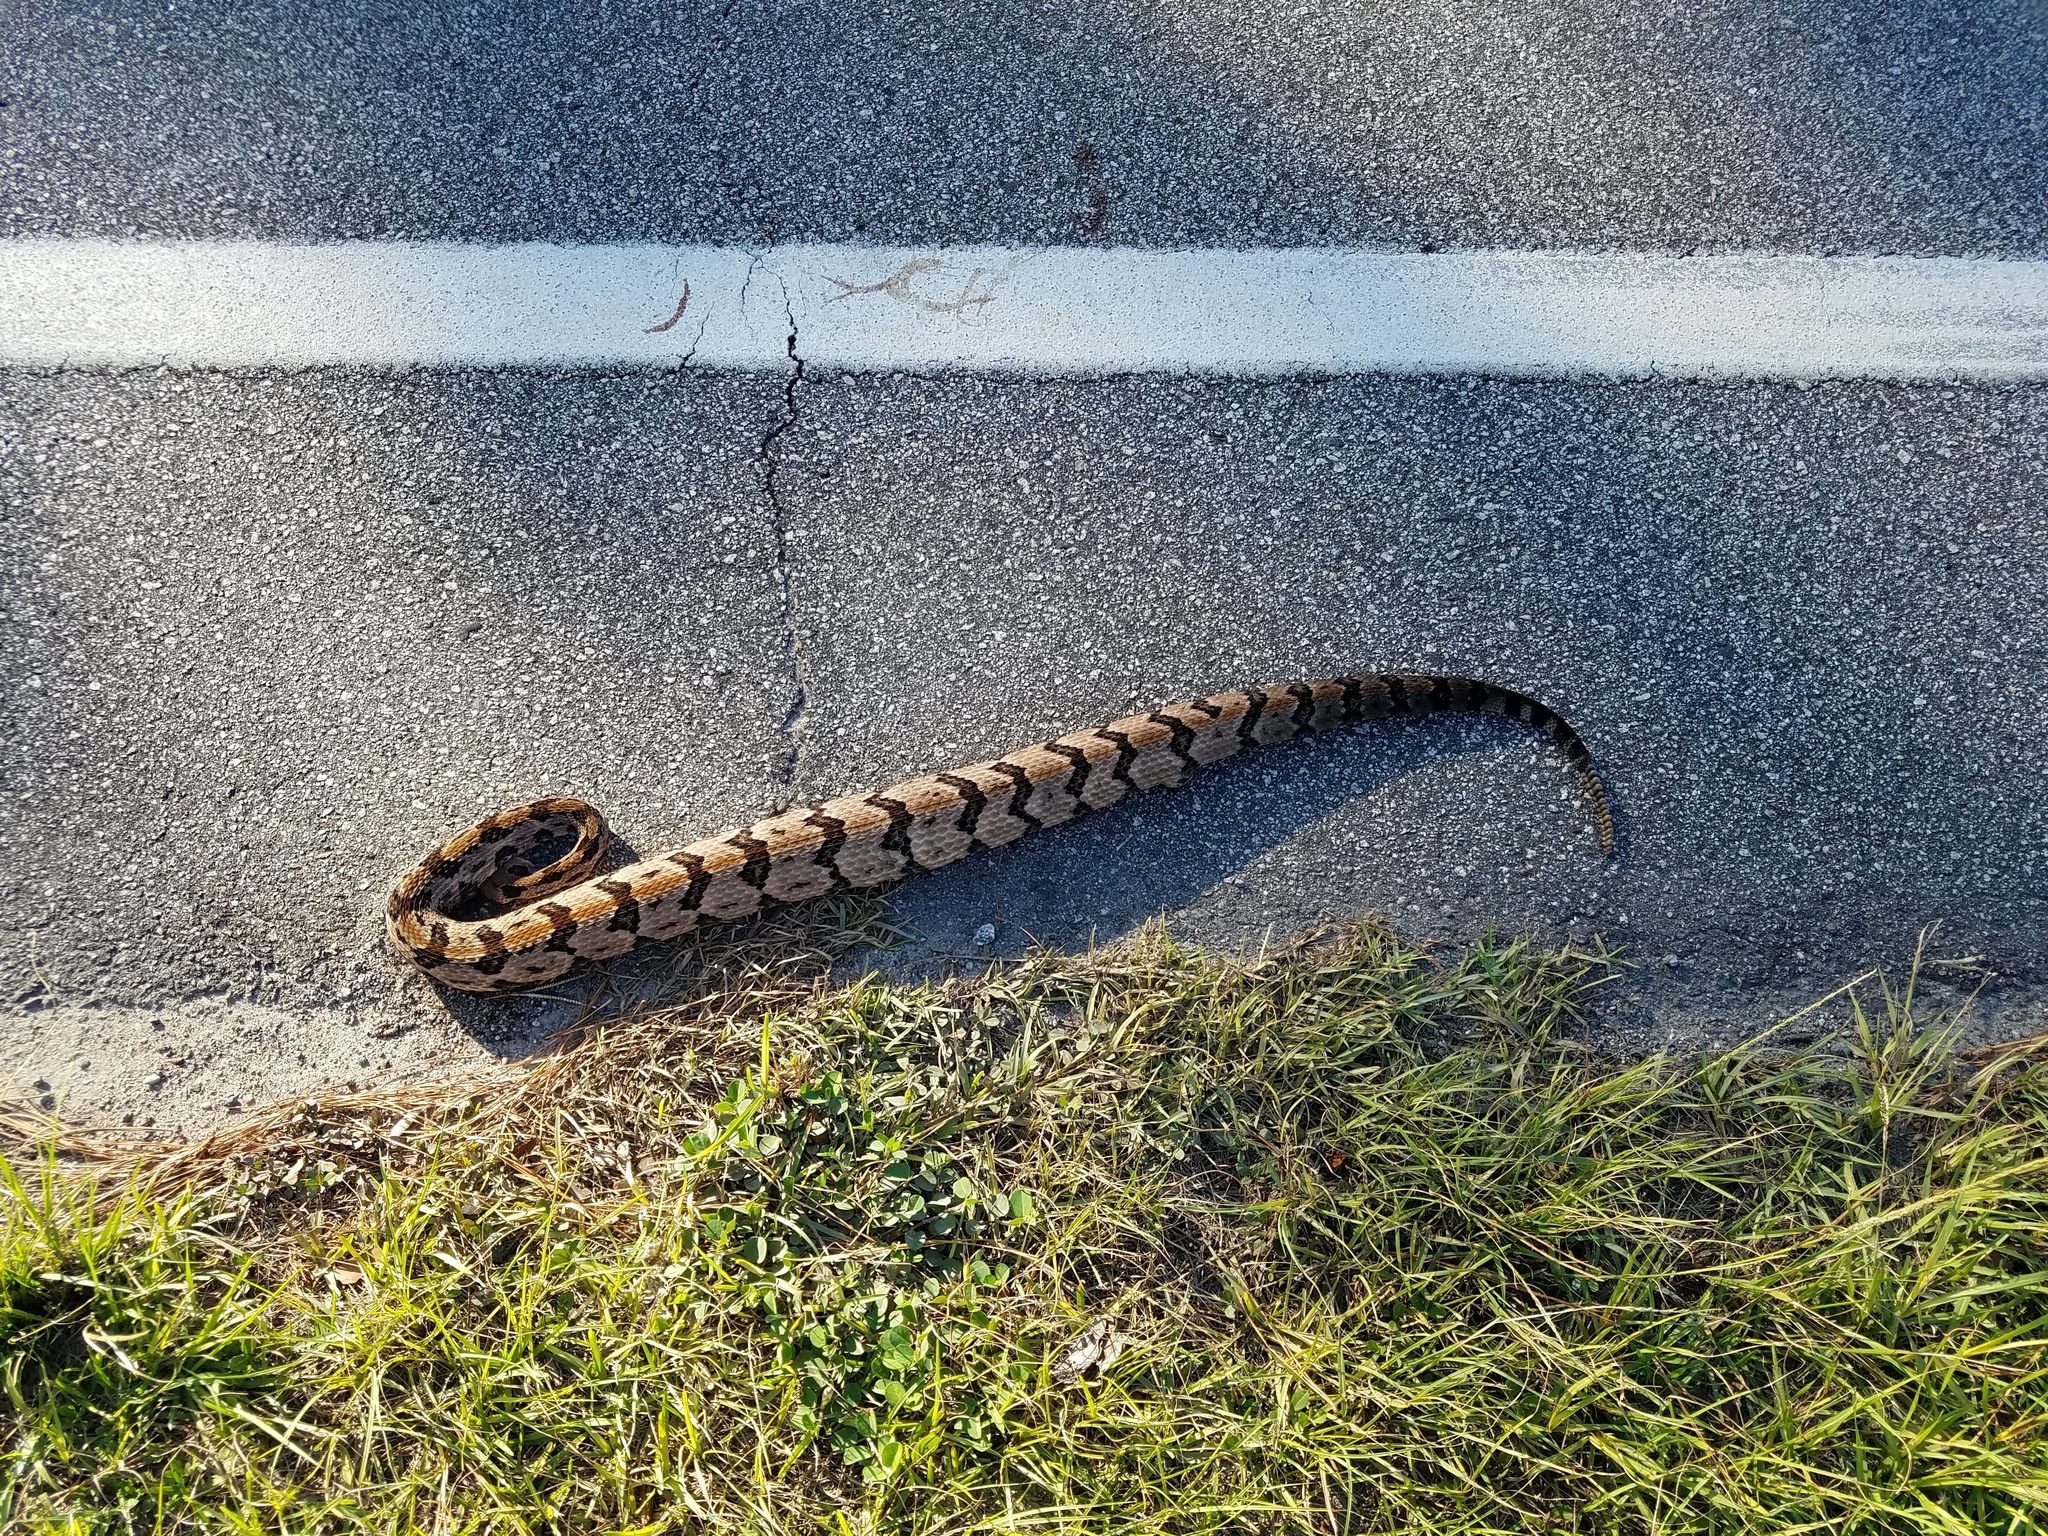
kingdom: Animalia
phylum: Chordata
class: Squamata
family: Viperidae
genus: Crotalus
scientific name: Crotalus horridus
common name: Timber rattlesnake
